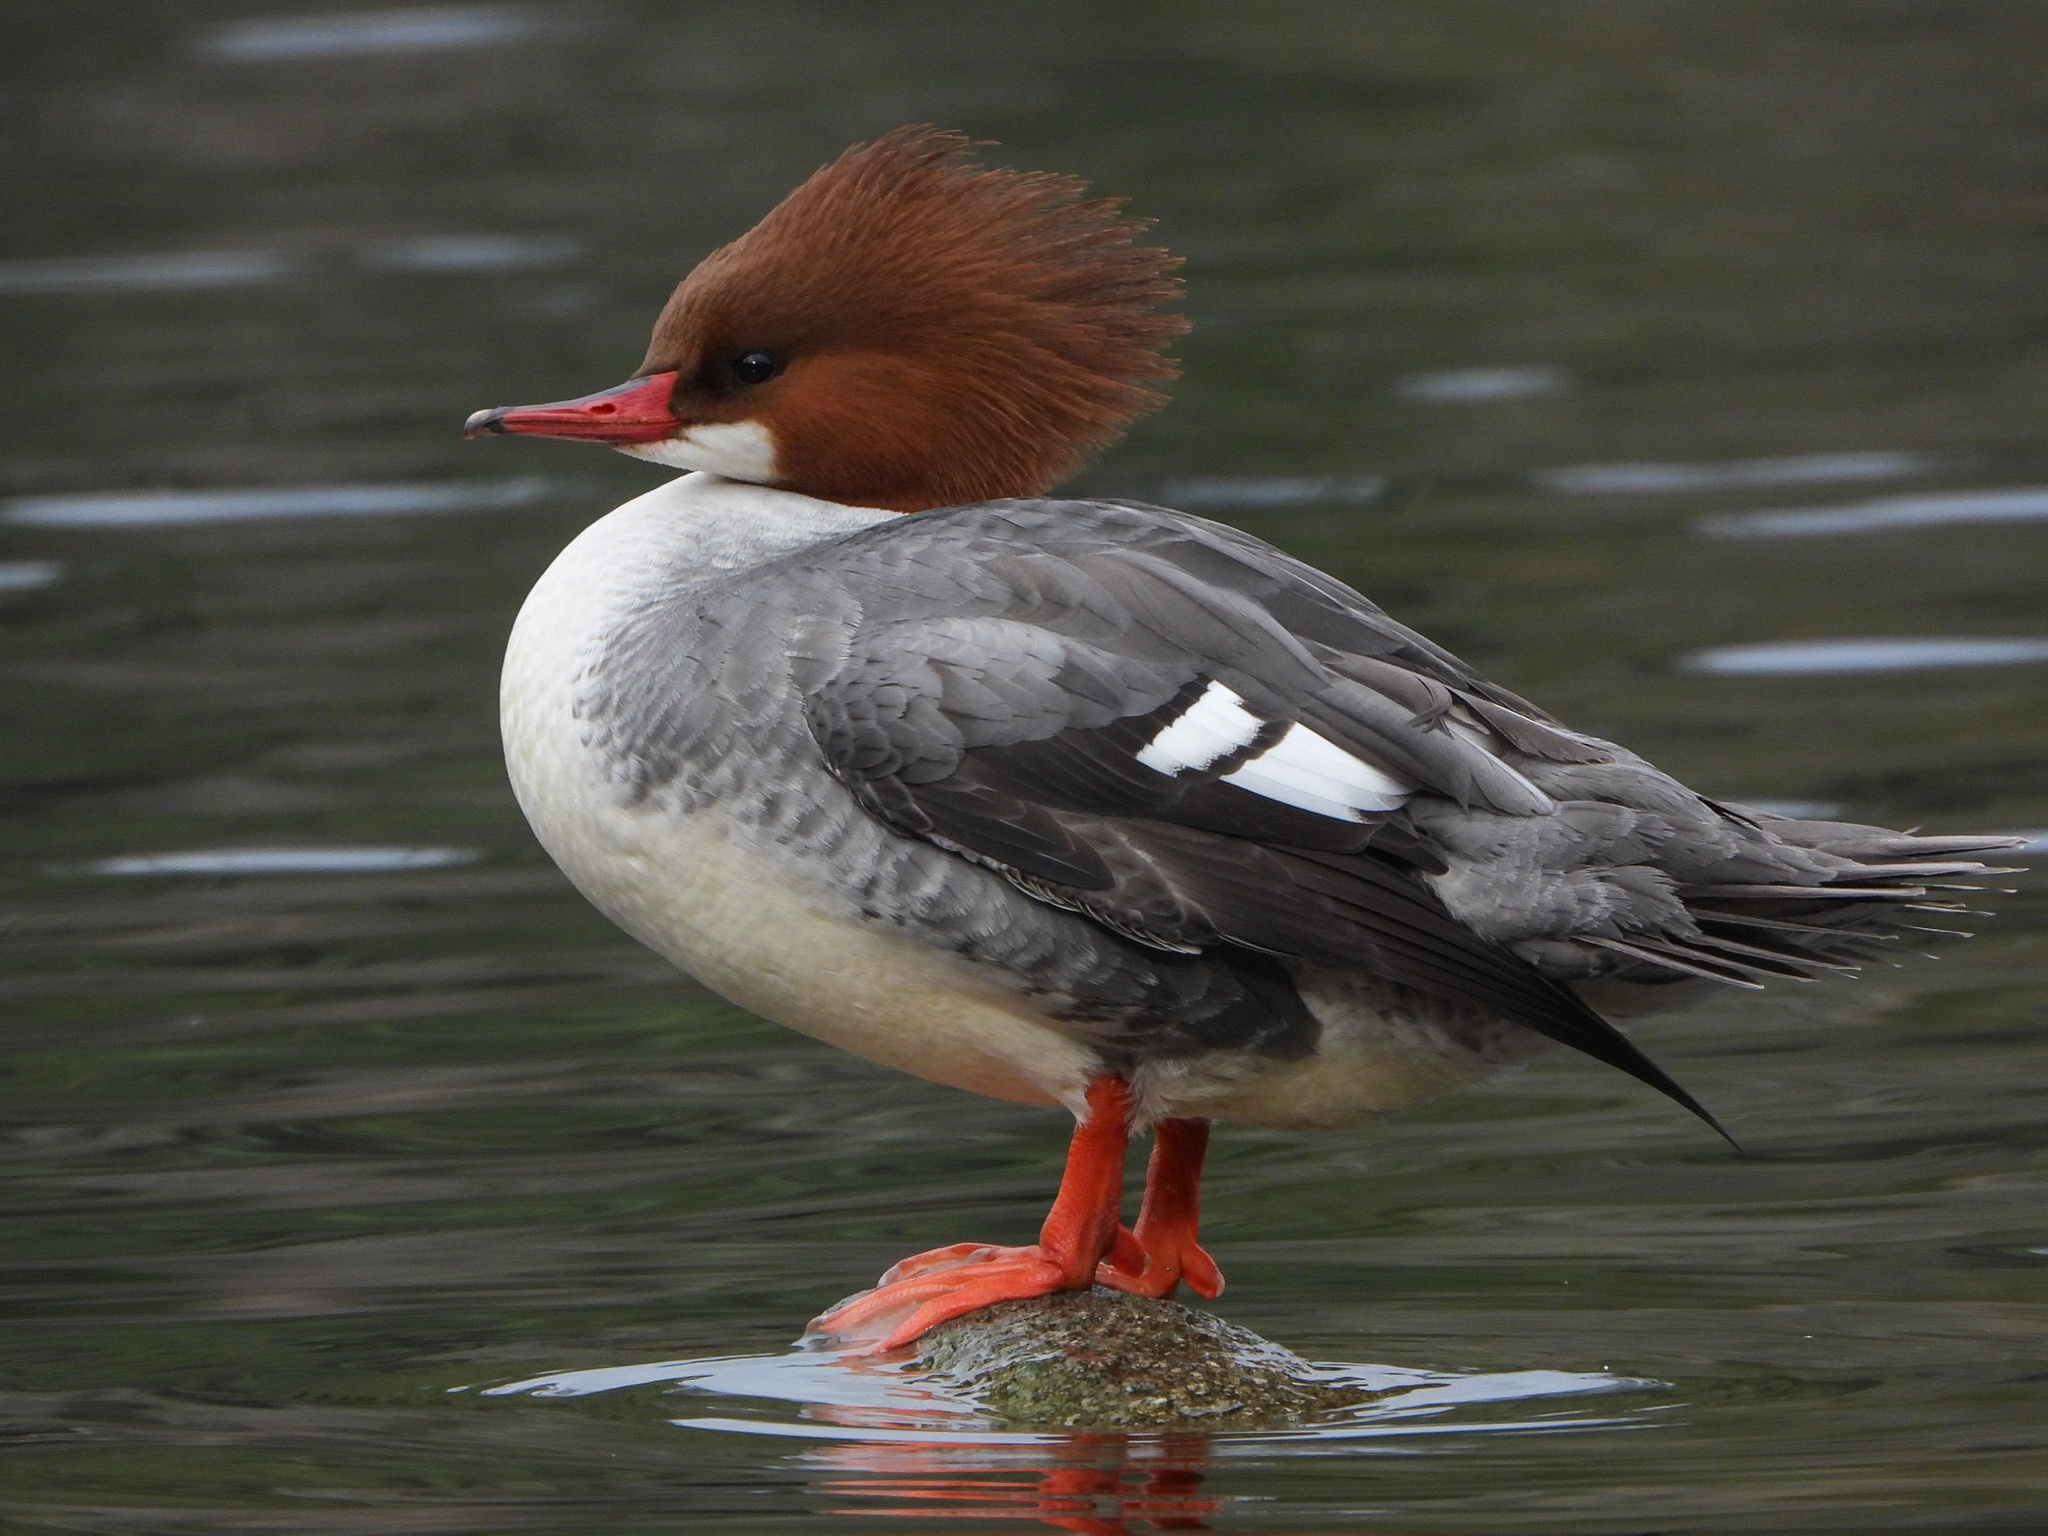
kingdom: Animalia
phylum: Chordata
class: Aves
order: Anseriformes
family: Anatidae
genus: Mergus
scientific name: Mergus merganser
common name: Common merganser
